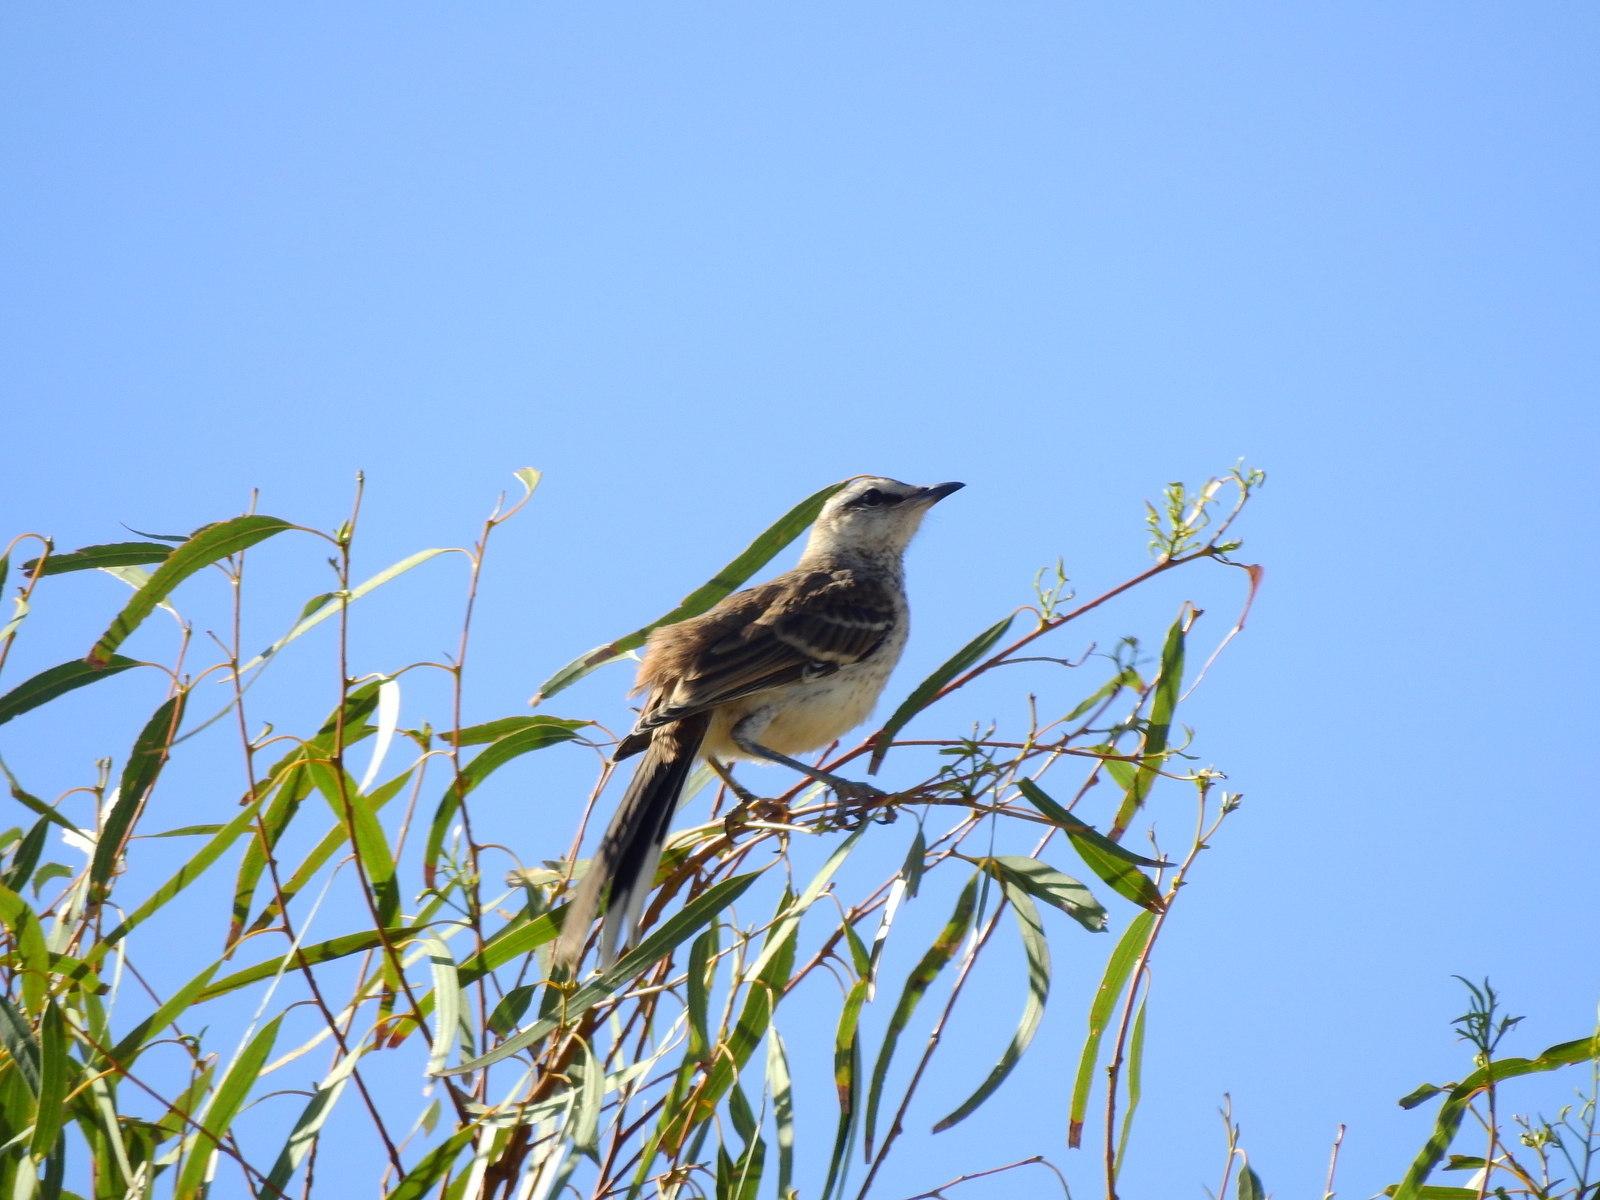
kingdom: Animalia
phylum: Chordata
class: Aves
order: Passeriformes
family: Mimidae
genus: Mimus
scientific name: Mimus saturninus
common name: Chalk-browed mockingbird
